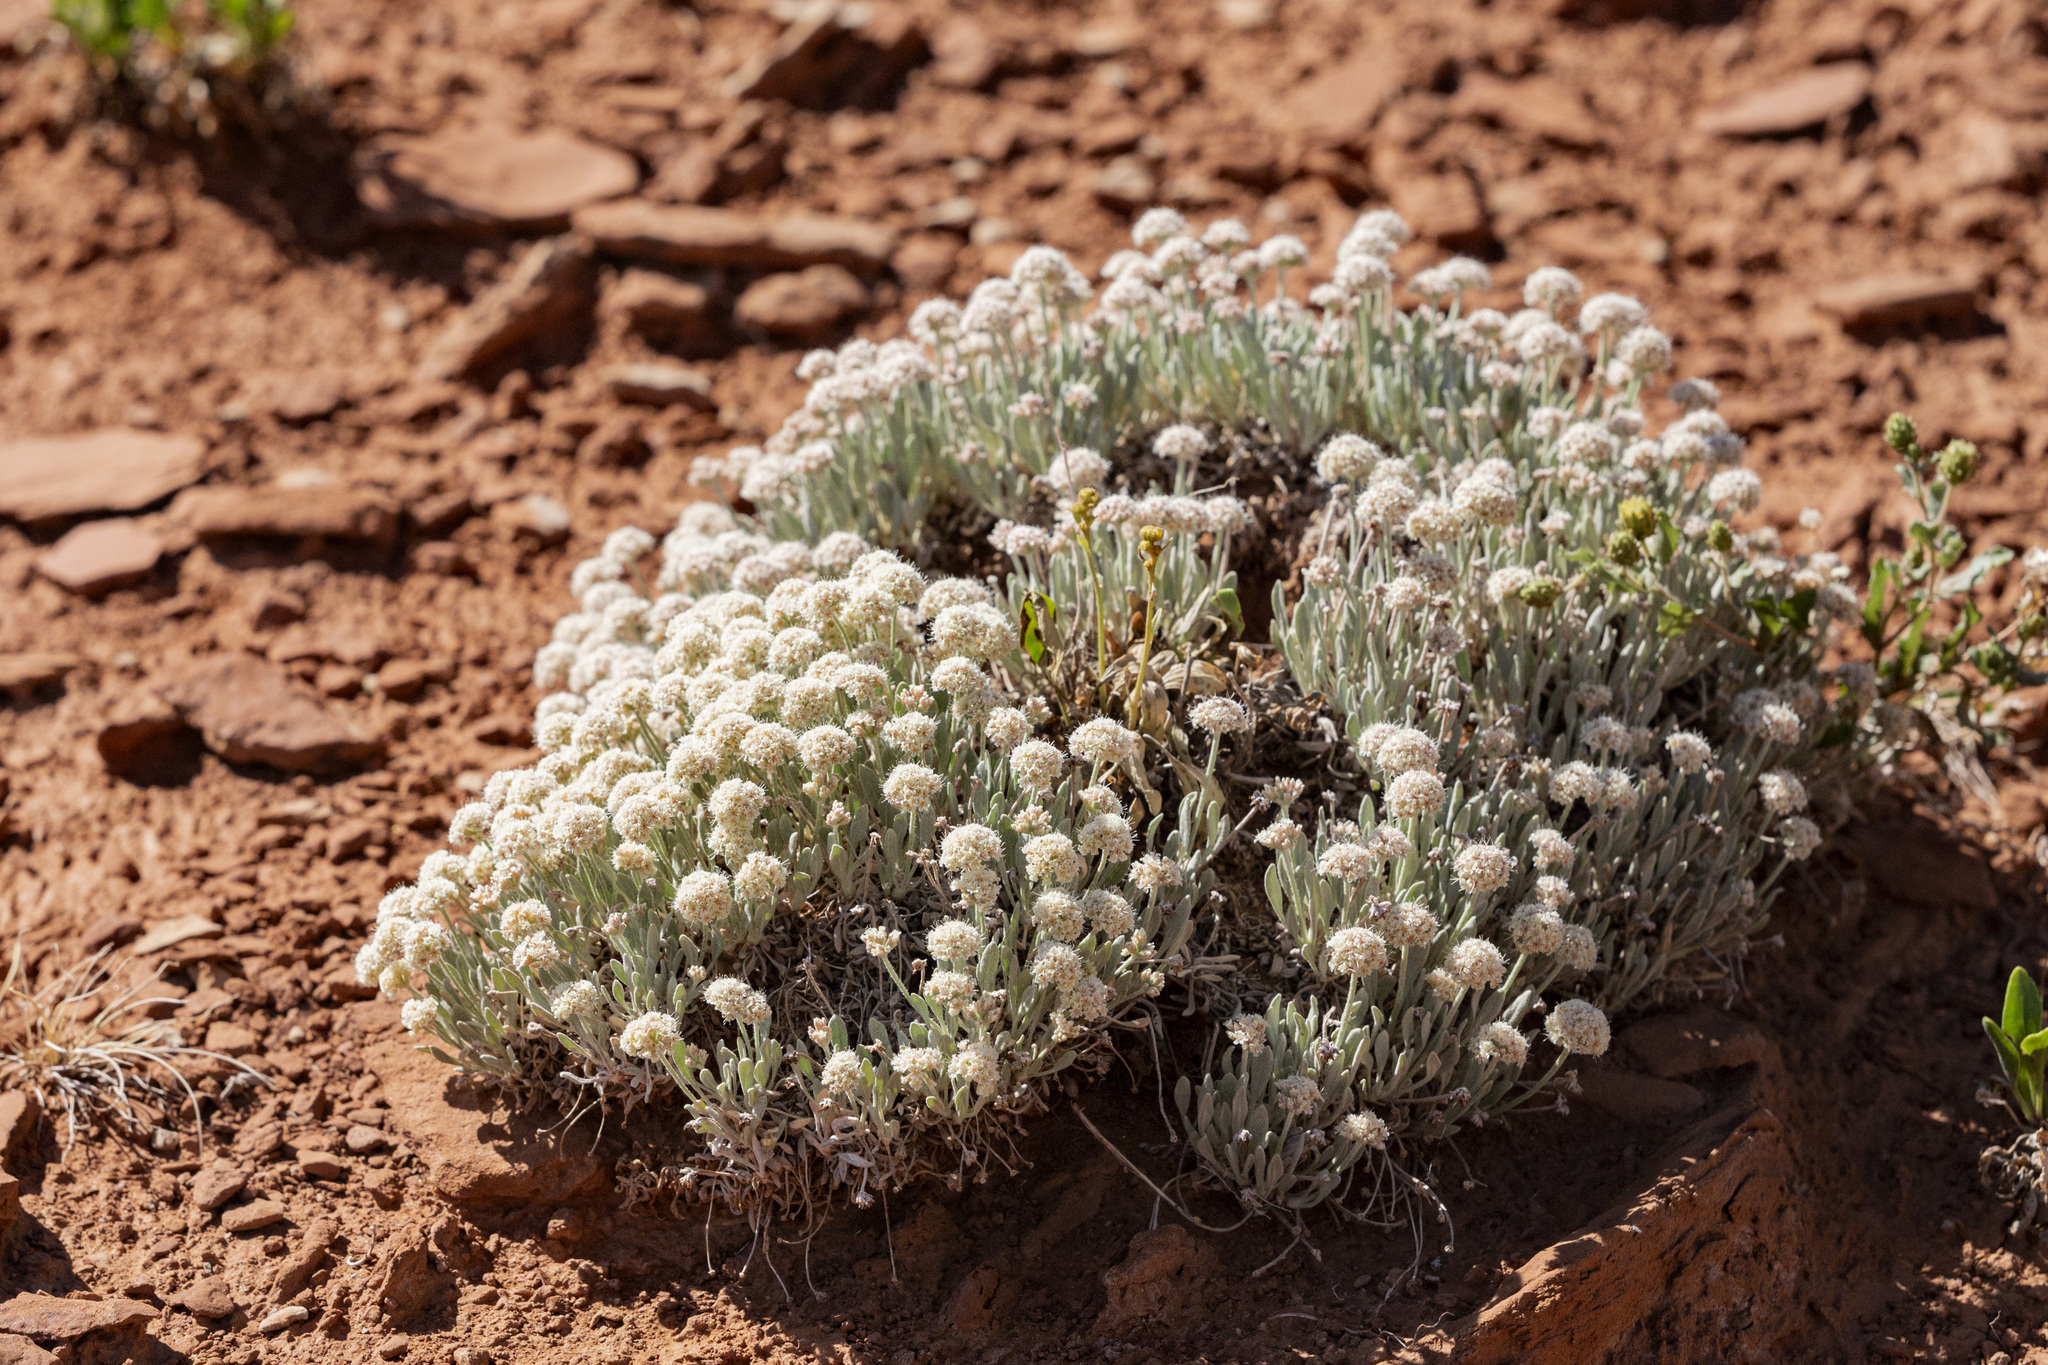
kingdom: Plantae
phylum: Tracheophyta
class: Magnoliopsida
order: Caryophyllales
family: Polygonaceae
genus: Eriogonum
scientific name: Eriogonum pauciflorum
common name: Few-flower wild buckwheat
